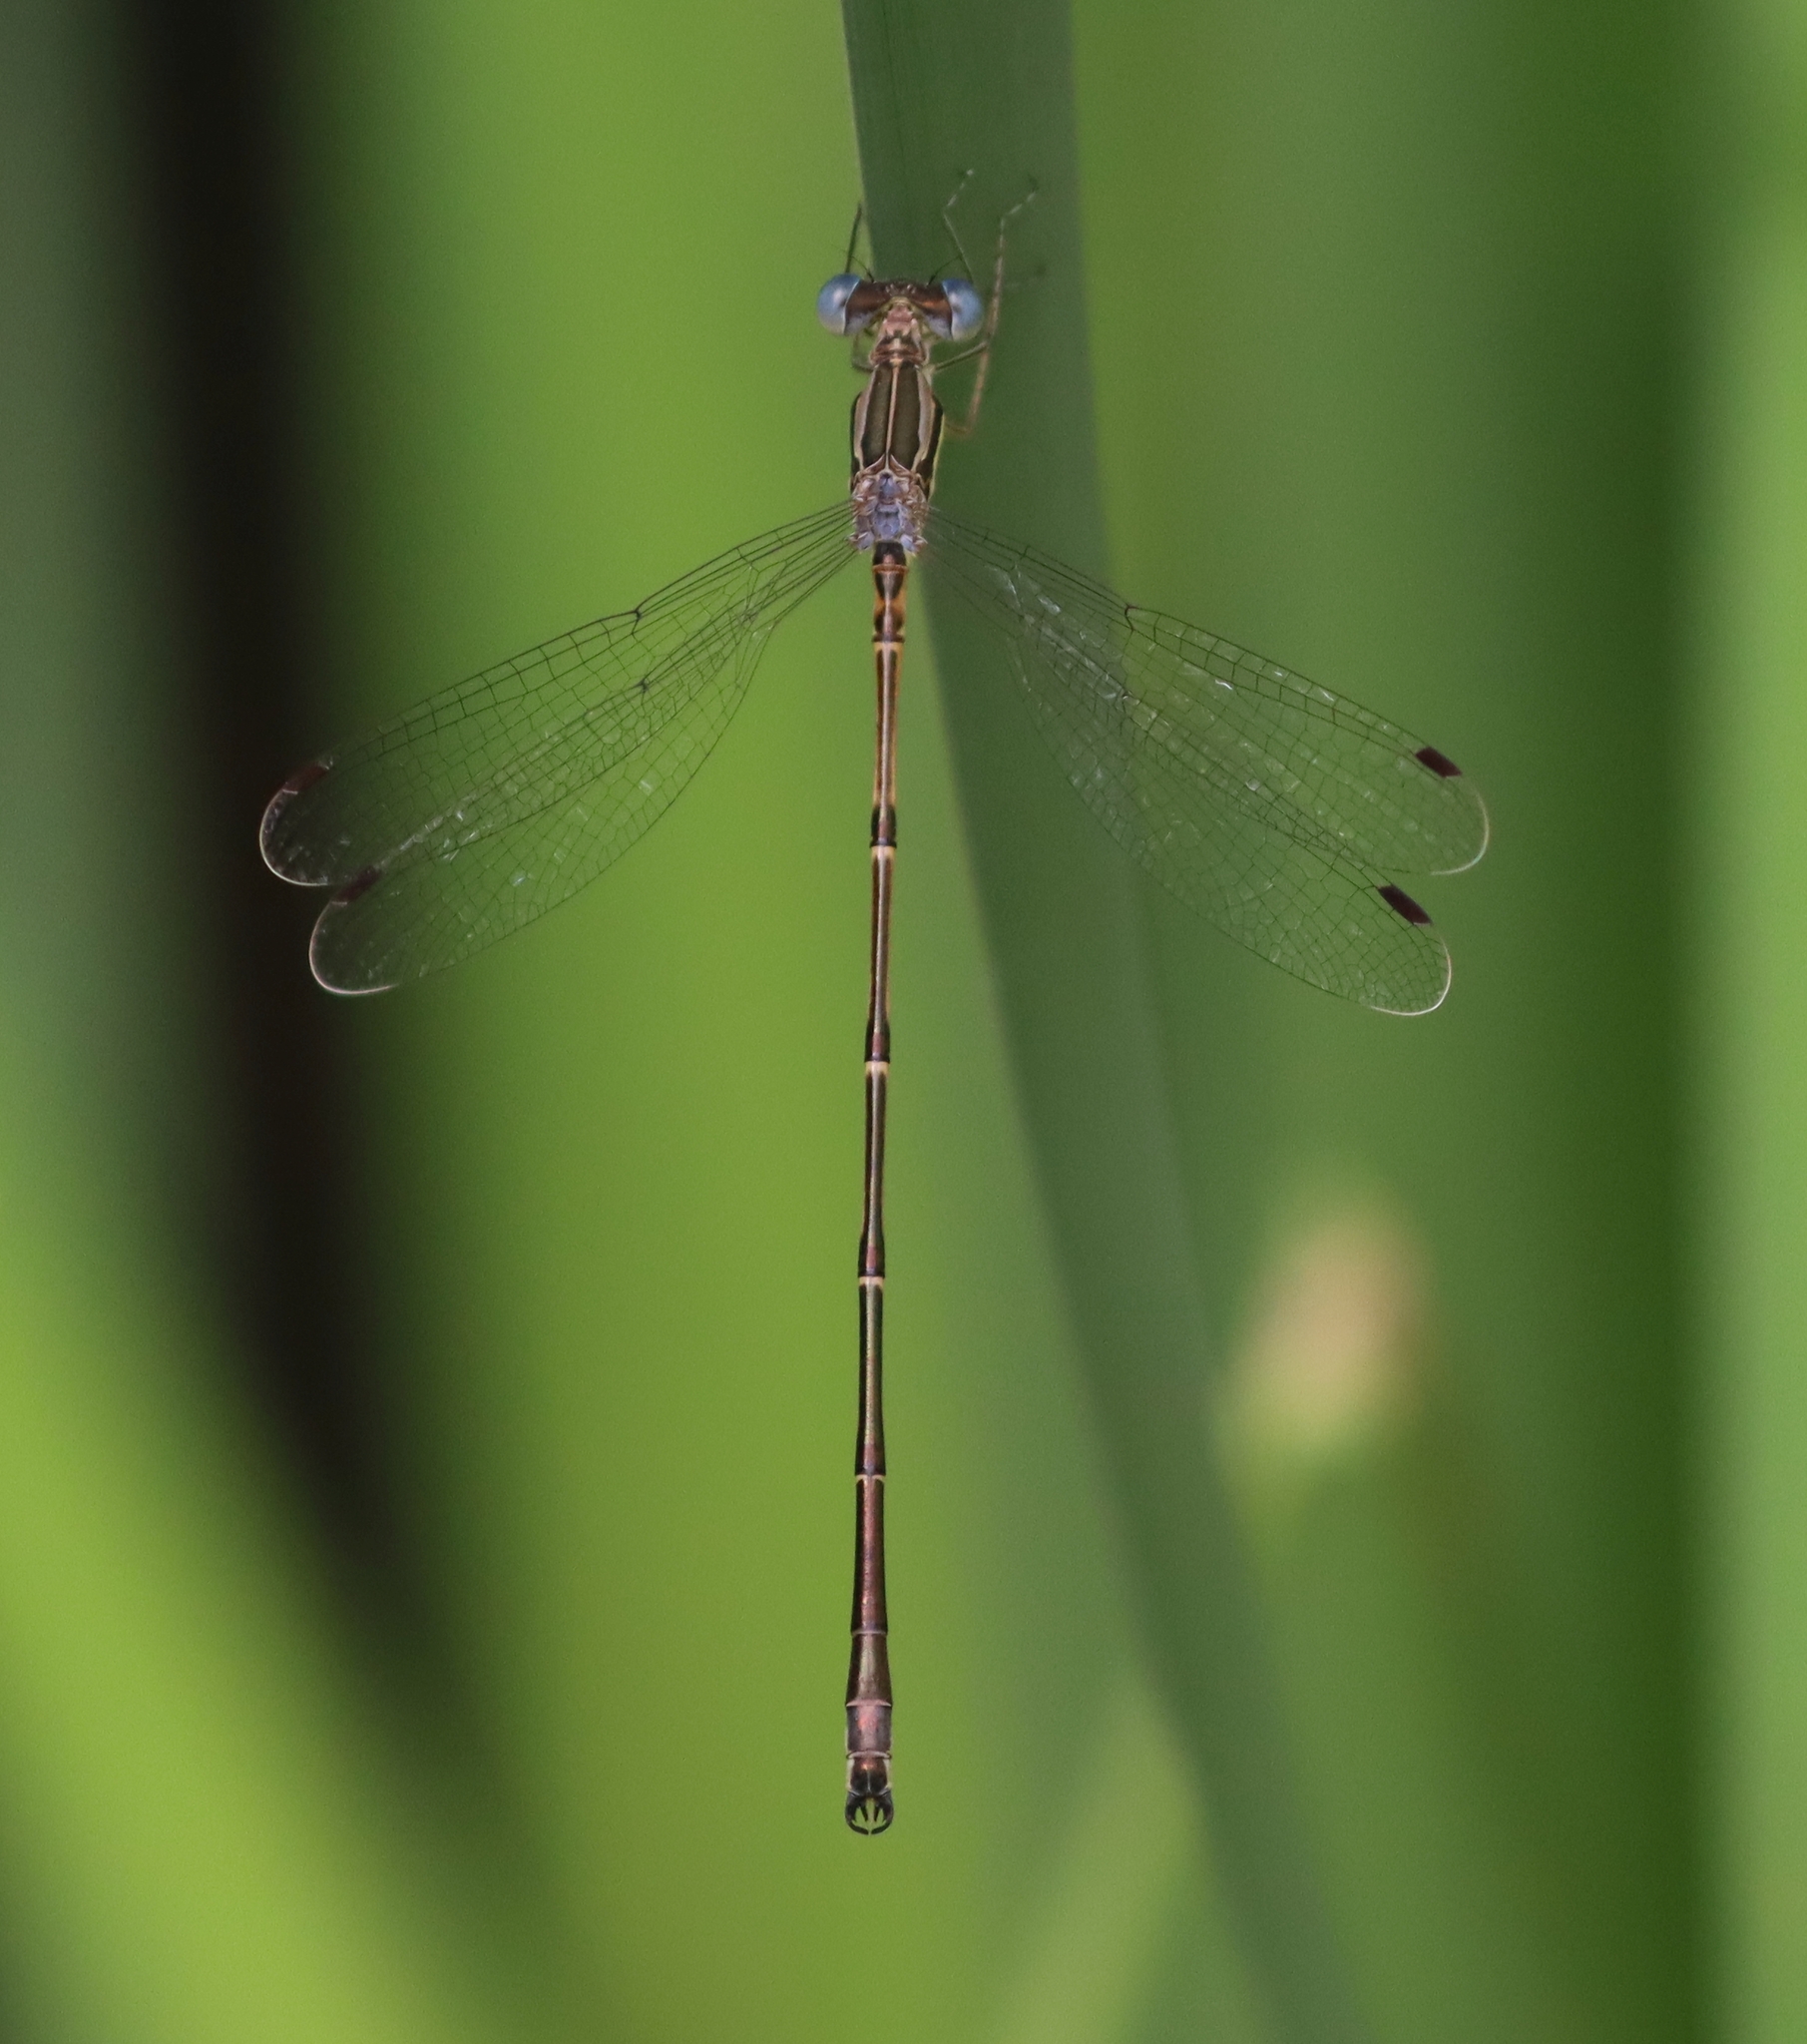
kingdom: Animalia
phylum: Arthropoda
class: Insecta
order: Odonata
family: Lestidae
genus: Lestes
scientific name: Lestes rectangularis
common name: Slender spreadwing
